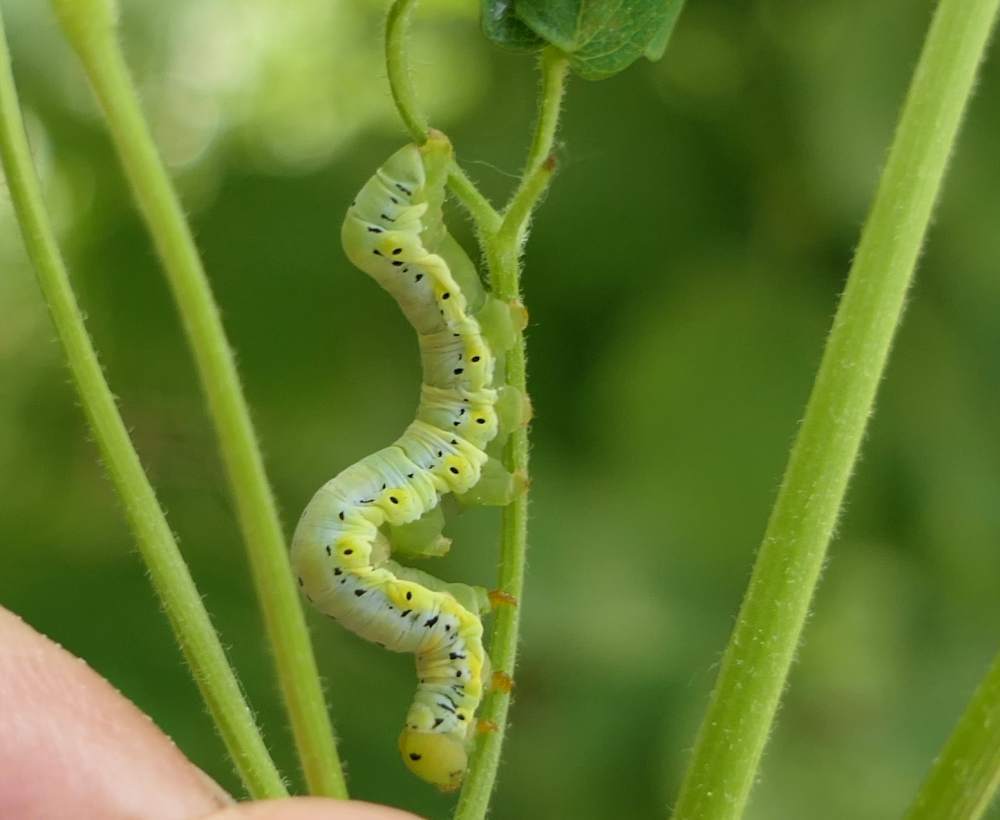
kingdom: Animalia
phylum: Arthropoda
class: Insecta
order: Lepidoptera
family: Erebidae
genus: Calyptra
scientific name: Calyptra canadensis
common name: Canadian owlet
